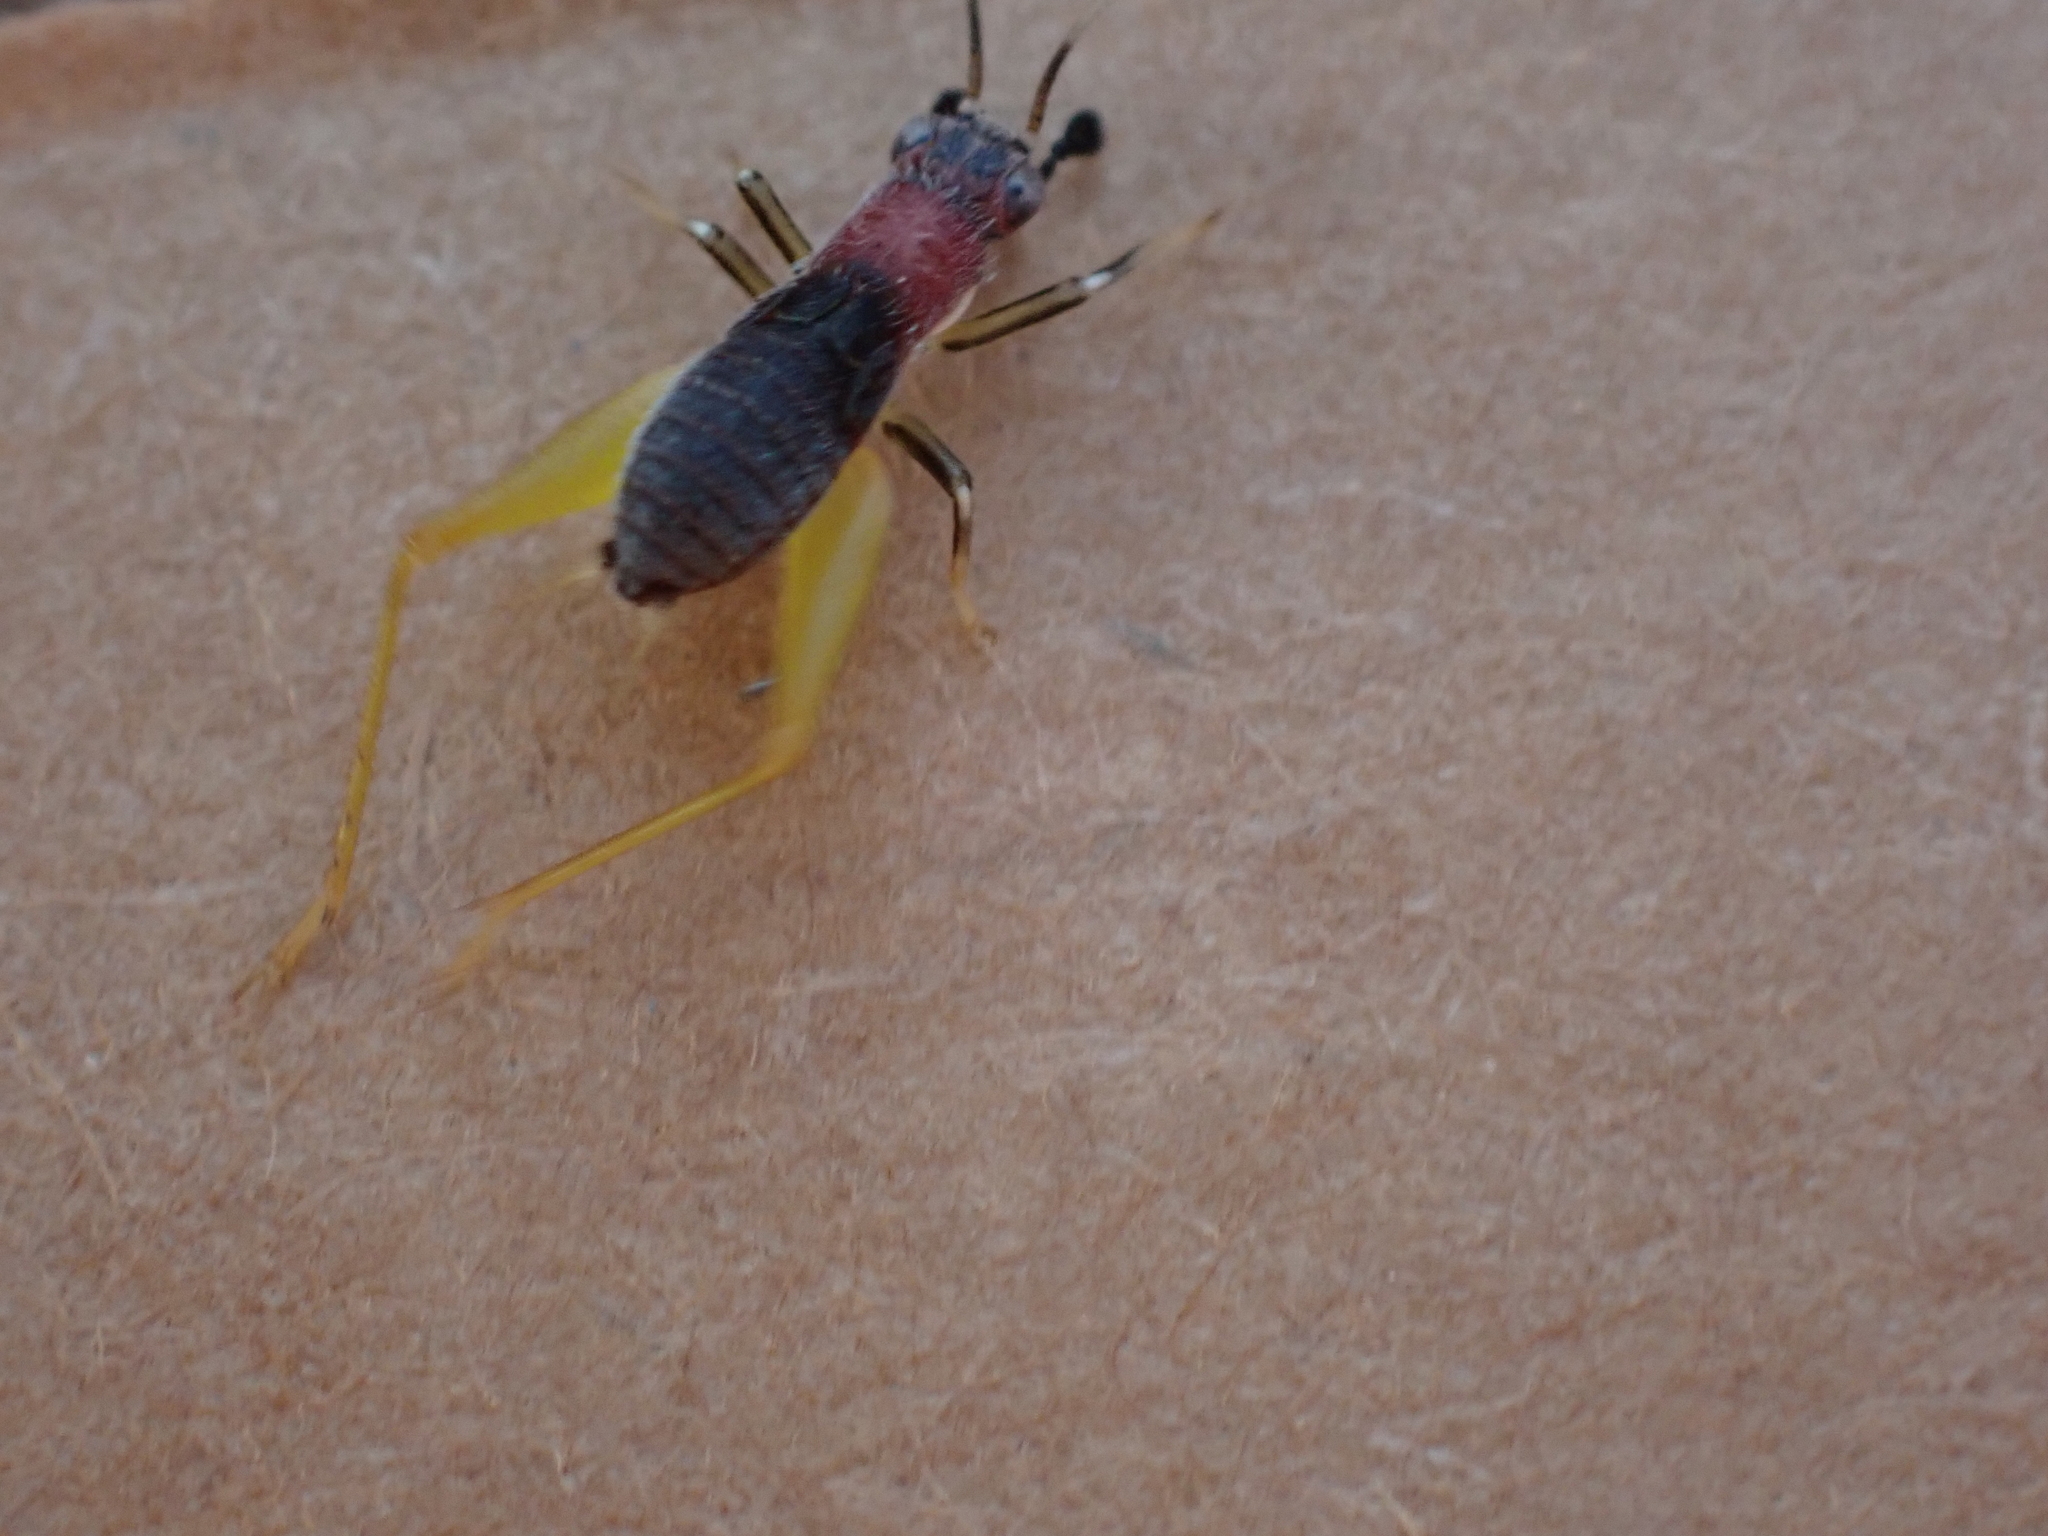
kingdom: Animalia
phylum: Arthropoda
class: Insecta
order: Orthoptera
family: Trigonidiidae
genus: Phyllopalpus
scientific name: Phyllopalpus pulchellus
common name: Handsome trig
